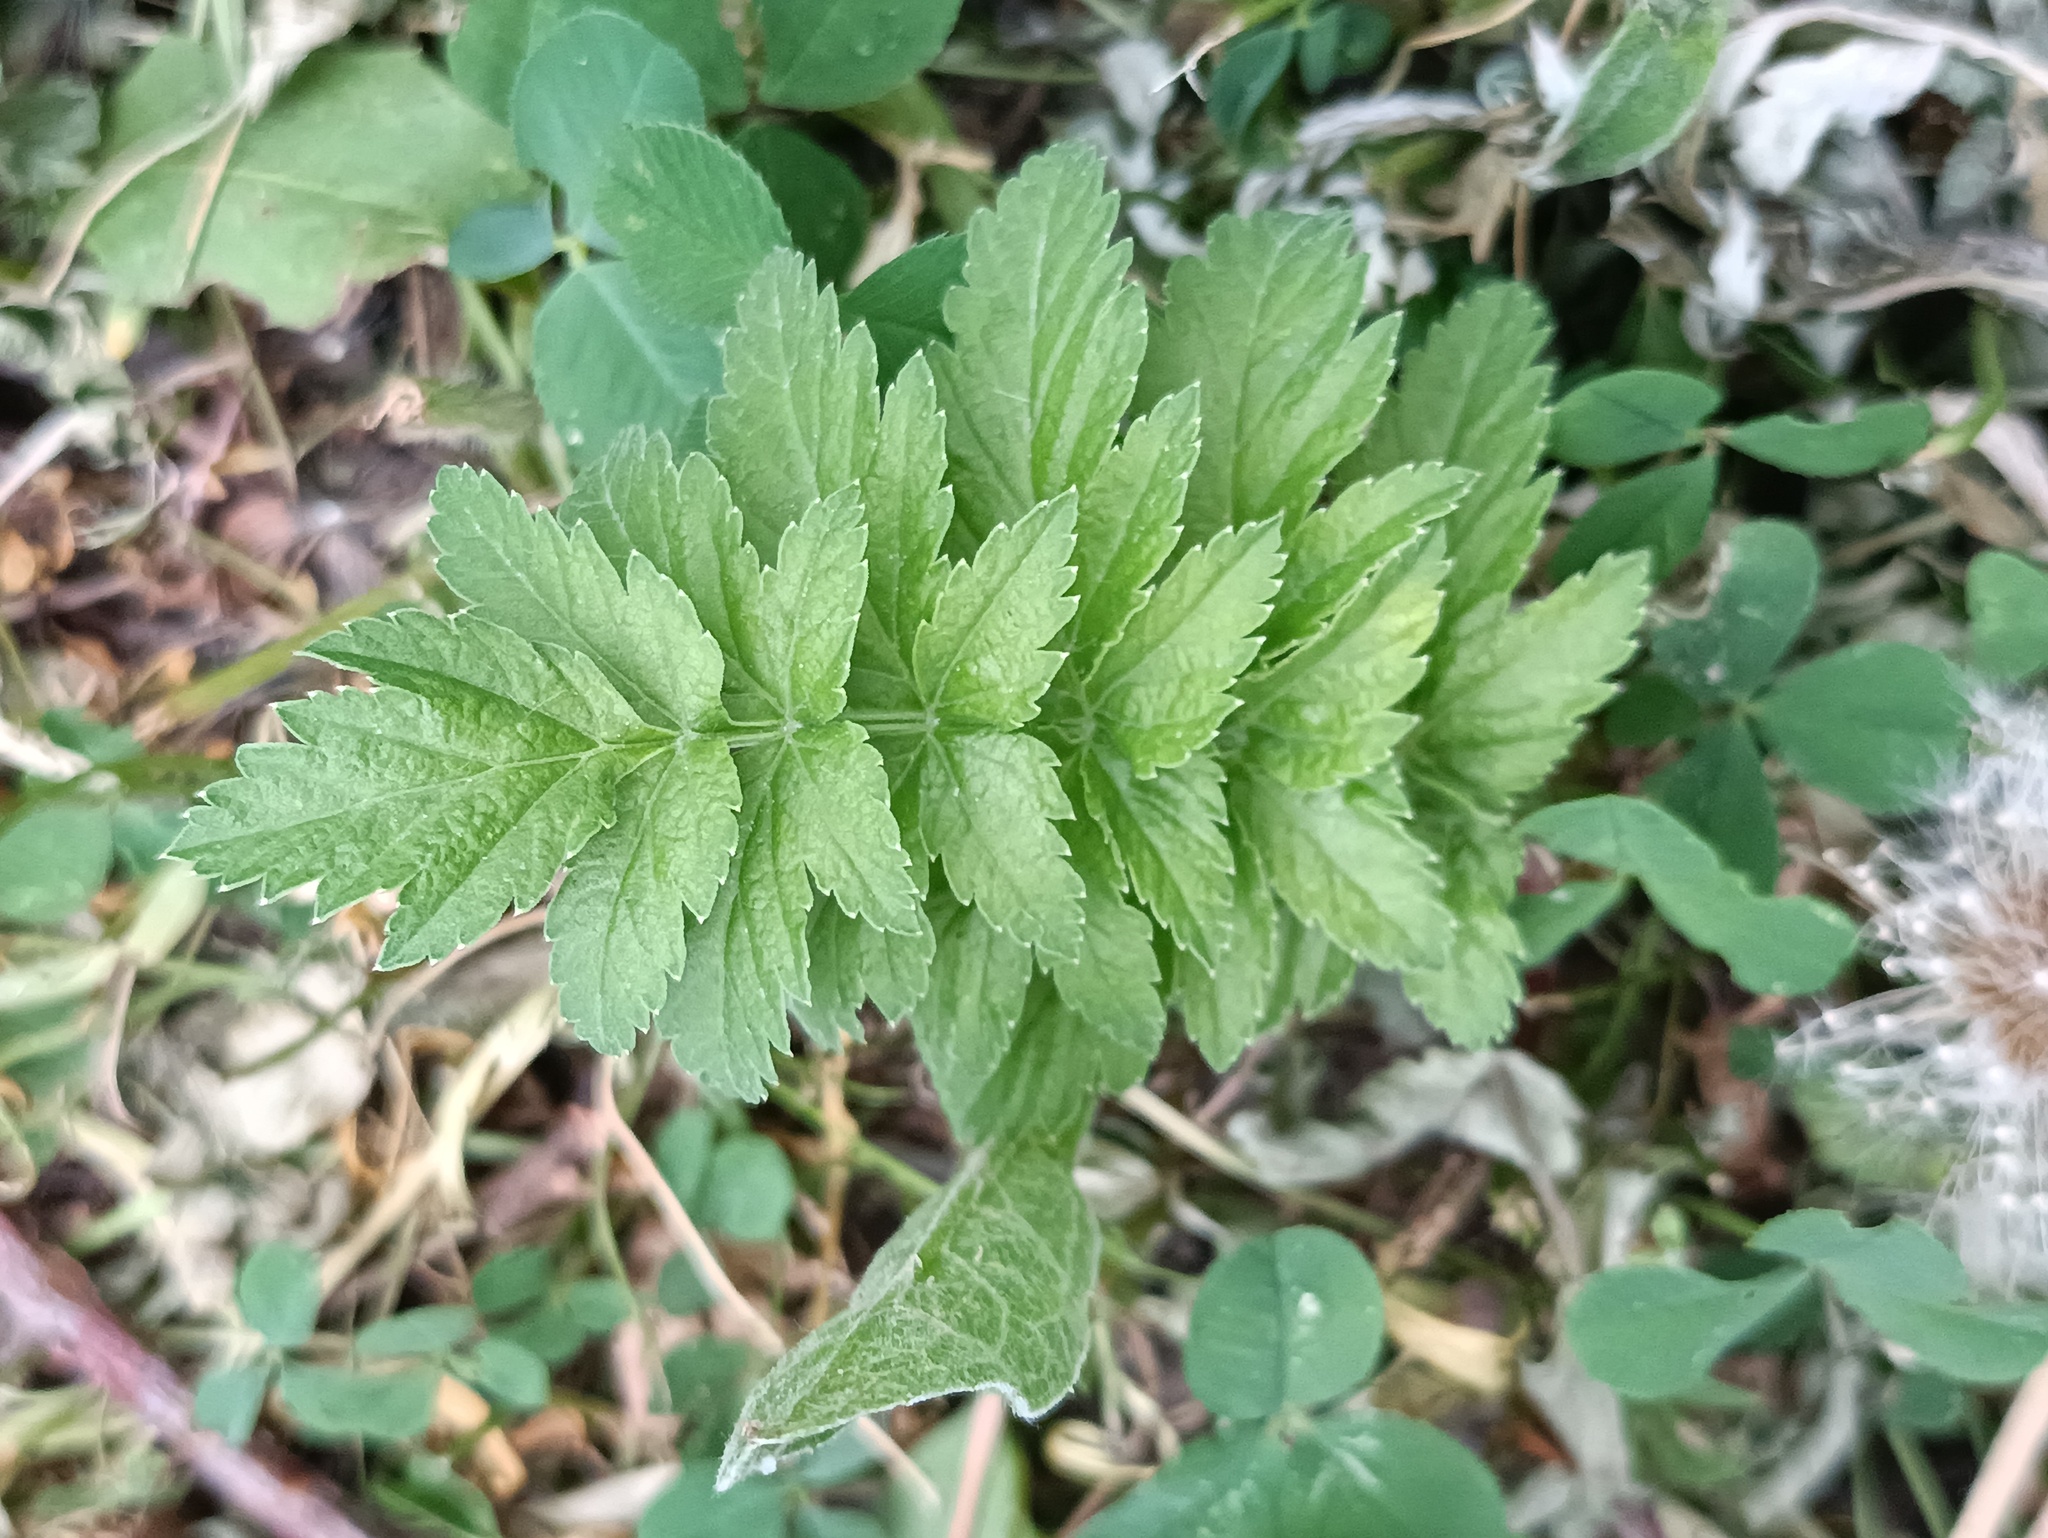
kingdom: Plantae
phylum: Tracheophyta
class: Magnoliopsida
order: Apiales
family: Apiaceae
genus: Pastinaca
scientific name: Pastinaca sativa
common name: Wild parsnip
